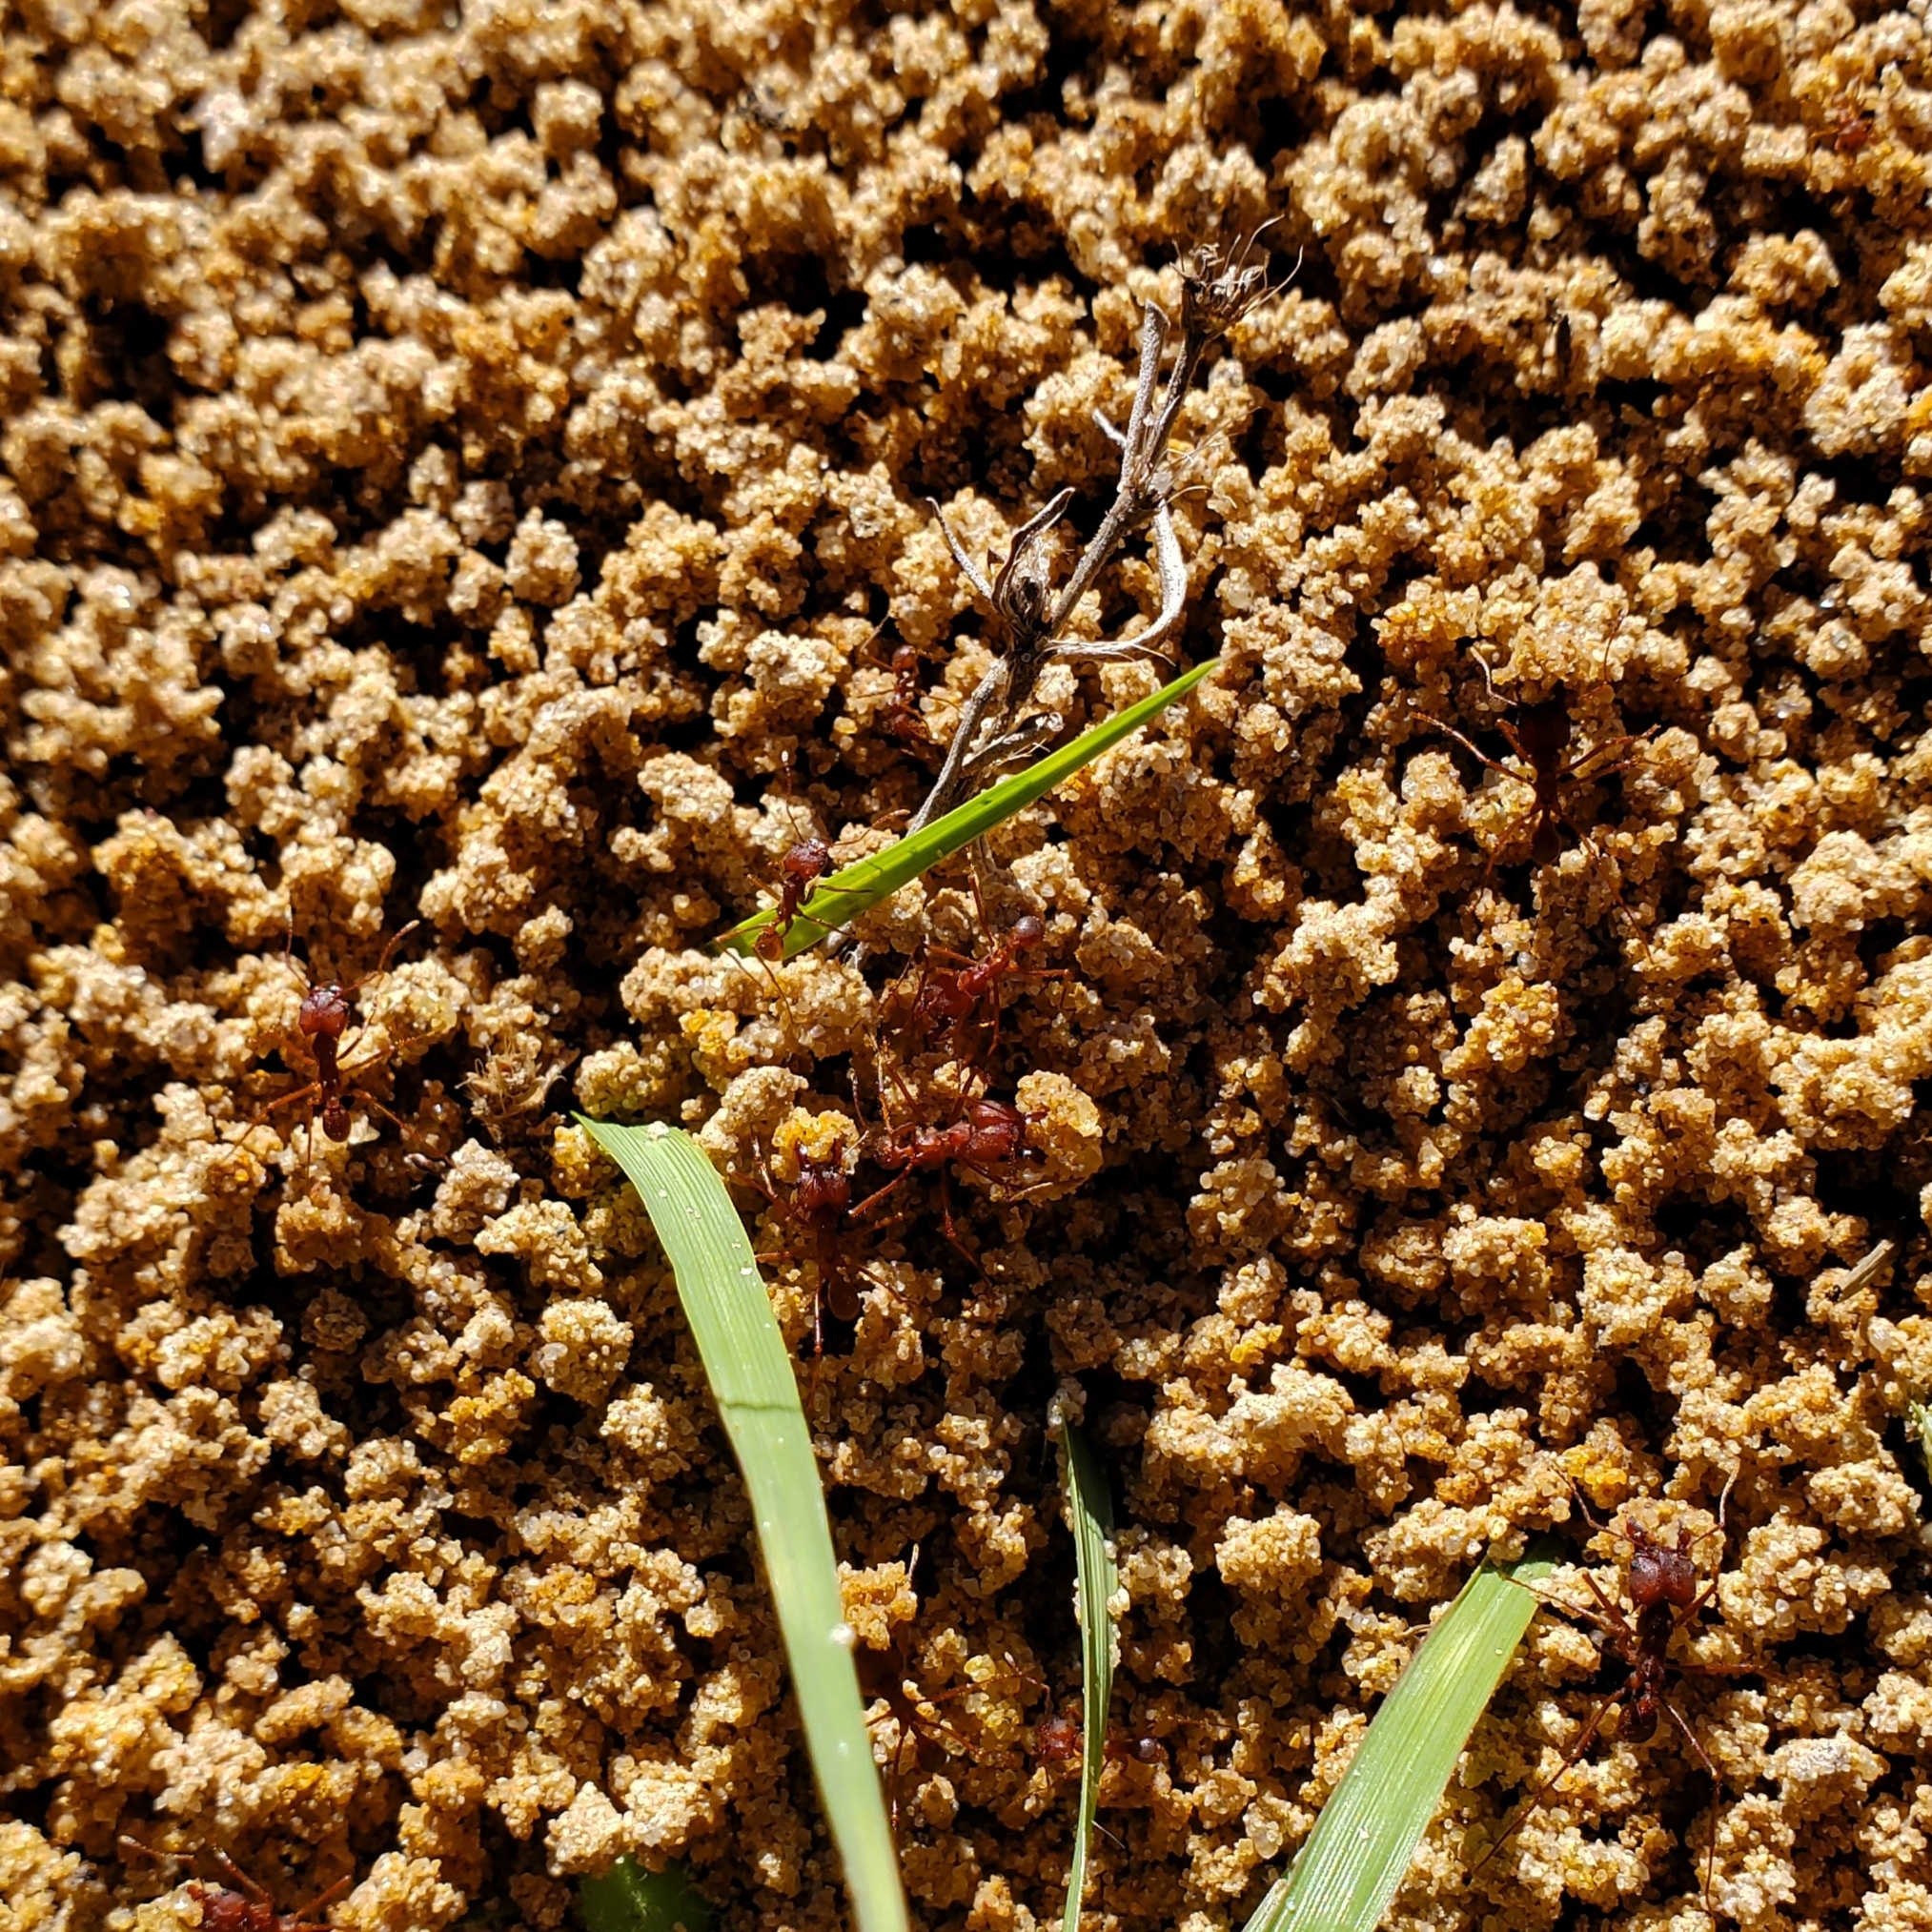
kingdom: Animalia
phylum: Arthropoda
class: Insecta
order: Hymenoptera
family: Formicidae
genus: Atta
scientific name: Atta texana
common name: Texas leafcutting ant
